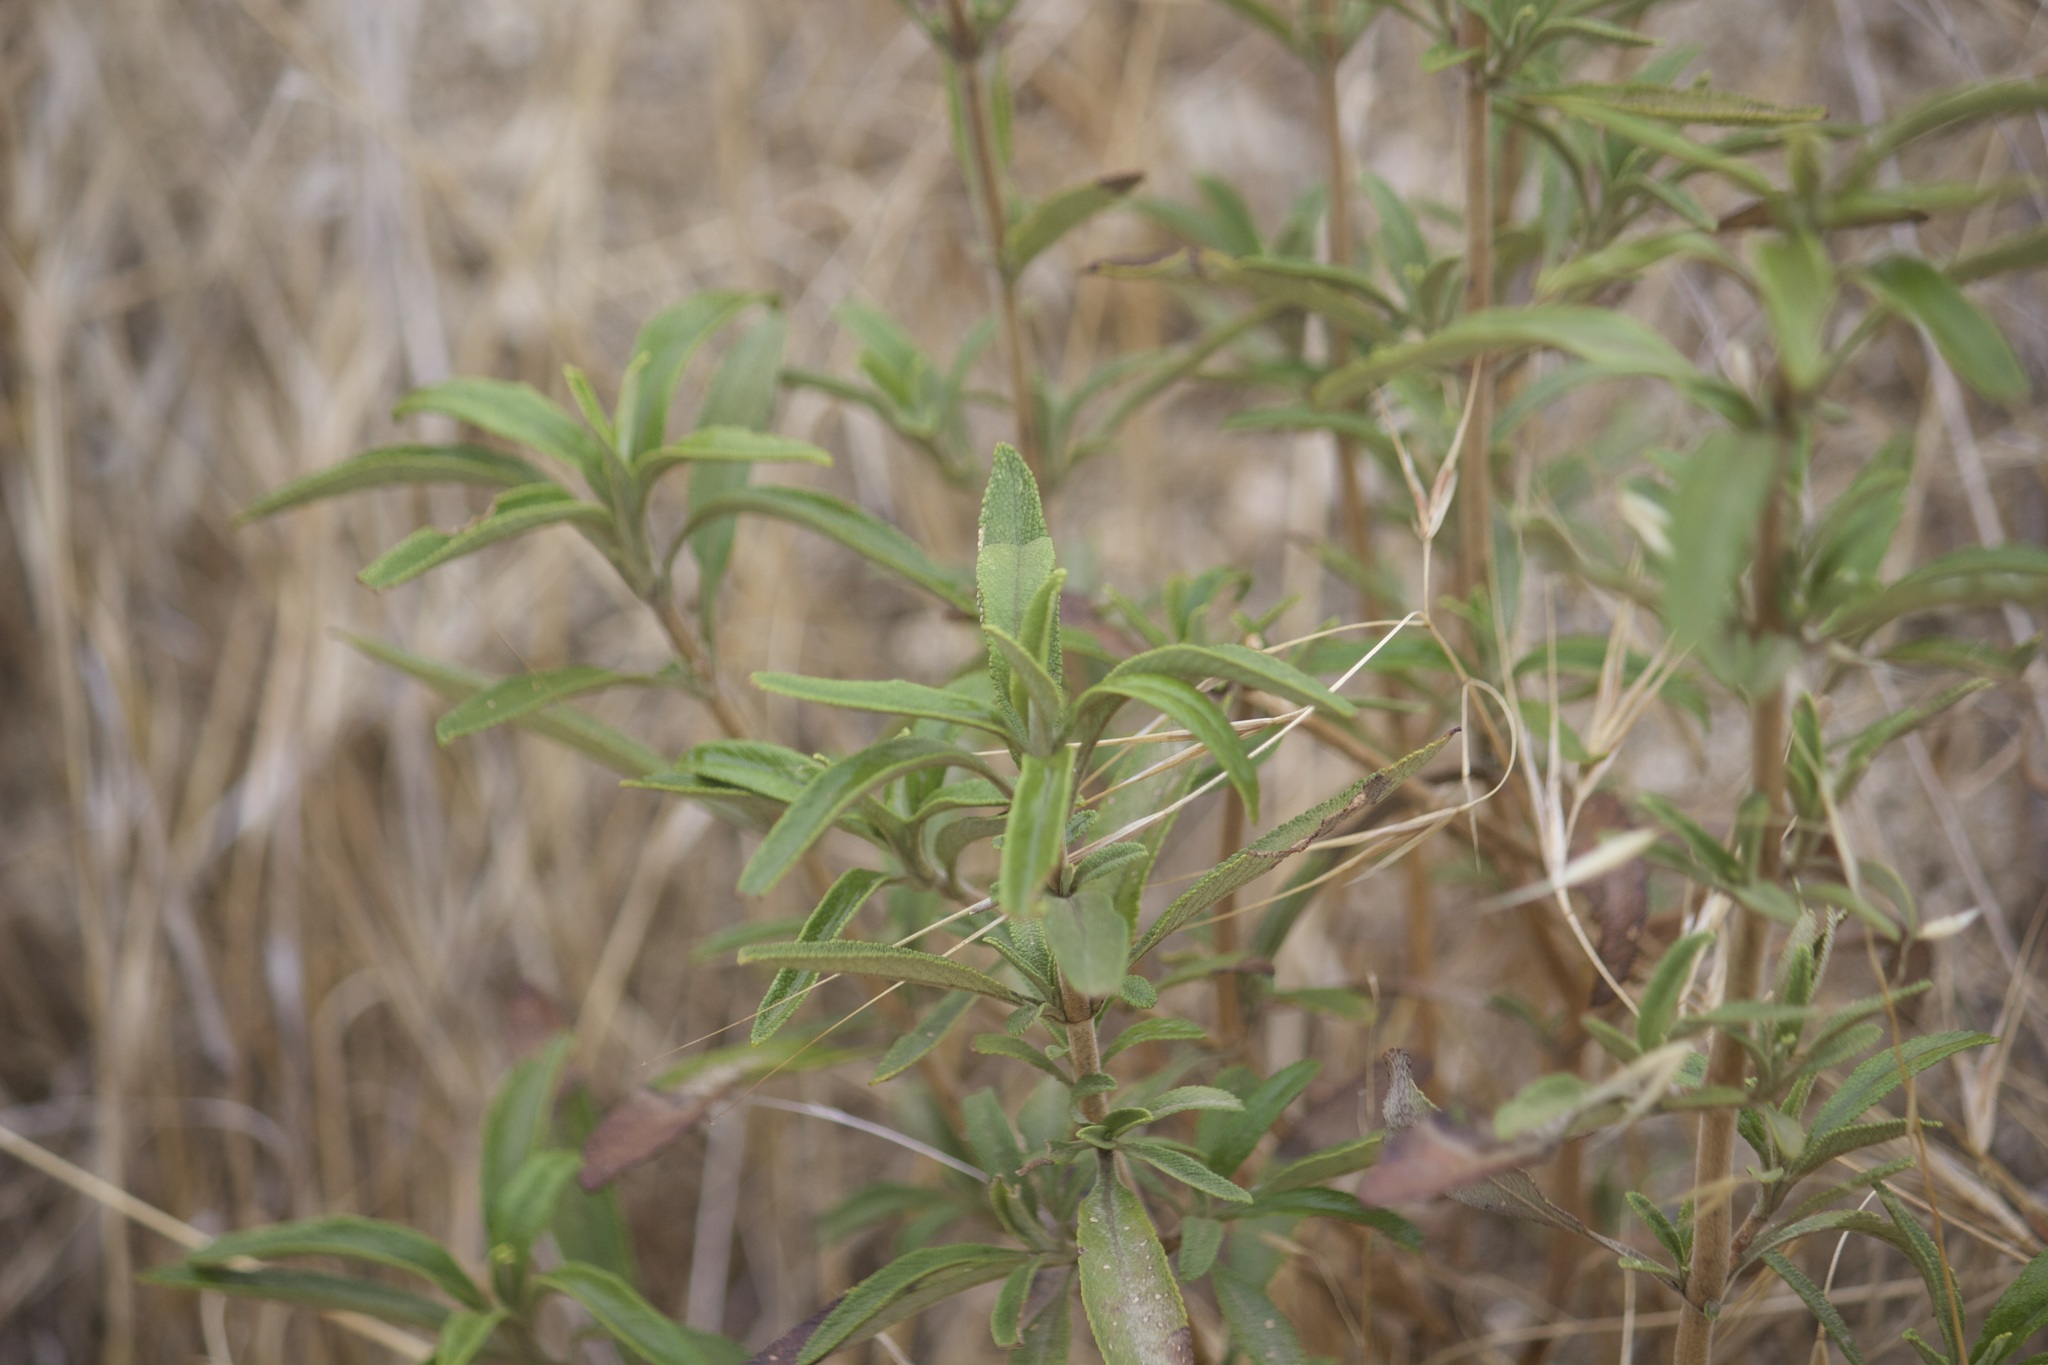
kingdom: Plantae
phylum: Tracheophyta
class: Magnoliopsida
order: Lamiales
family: Lamiaceae
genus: Salvia
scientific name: Salvia mellifera
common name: Black sage
